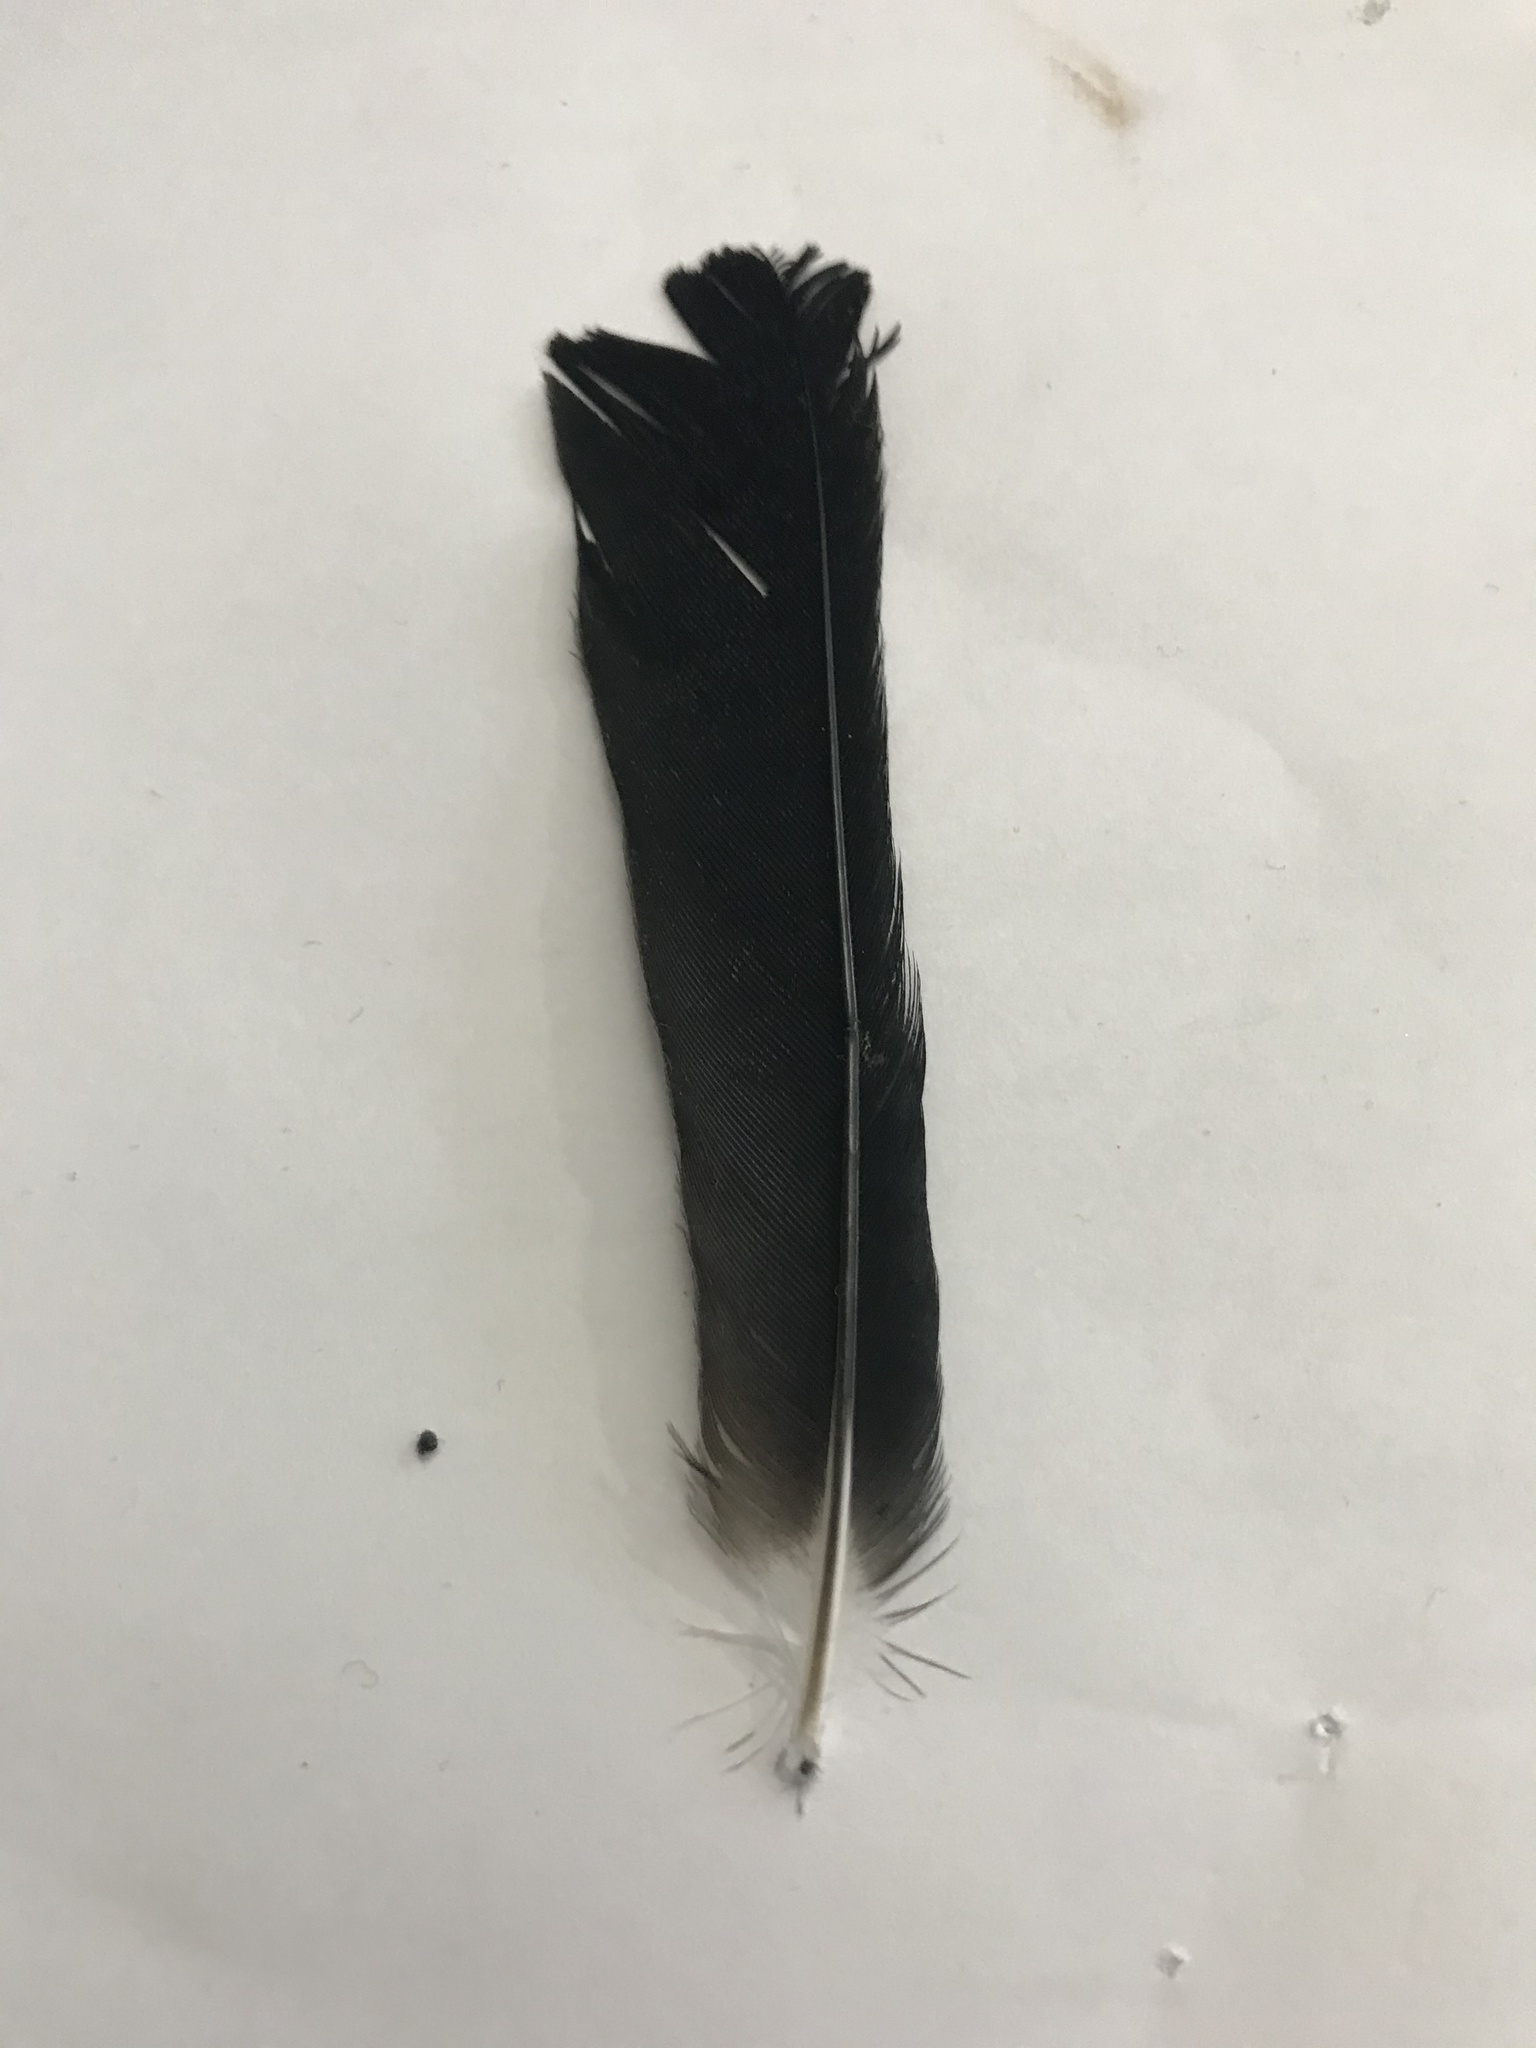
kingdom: Animalia
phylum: Chordata
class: Aves
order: Passeriformes
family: Icteridae
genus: Agelaius
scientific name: Agelaius phoeniceus
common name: Red-winged blackbird
